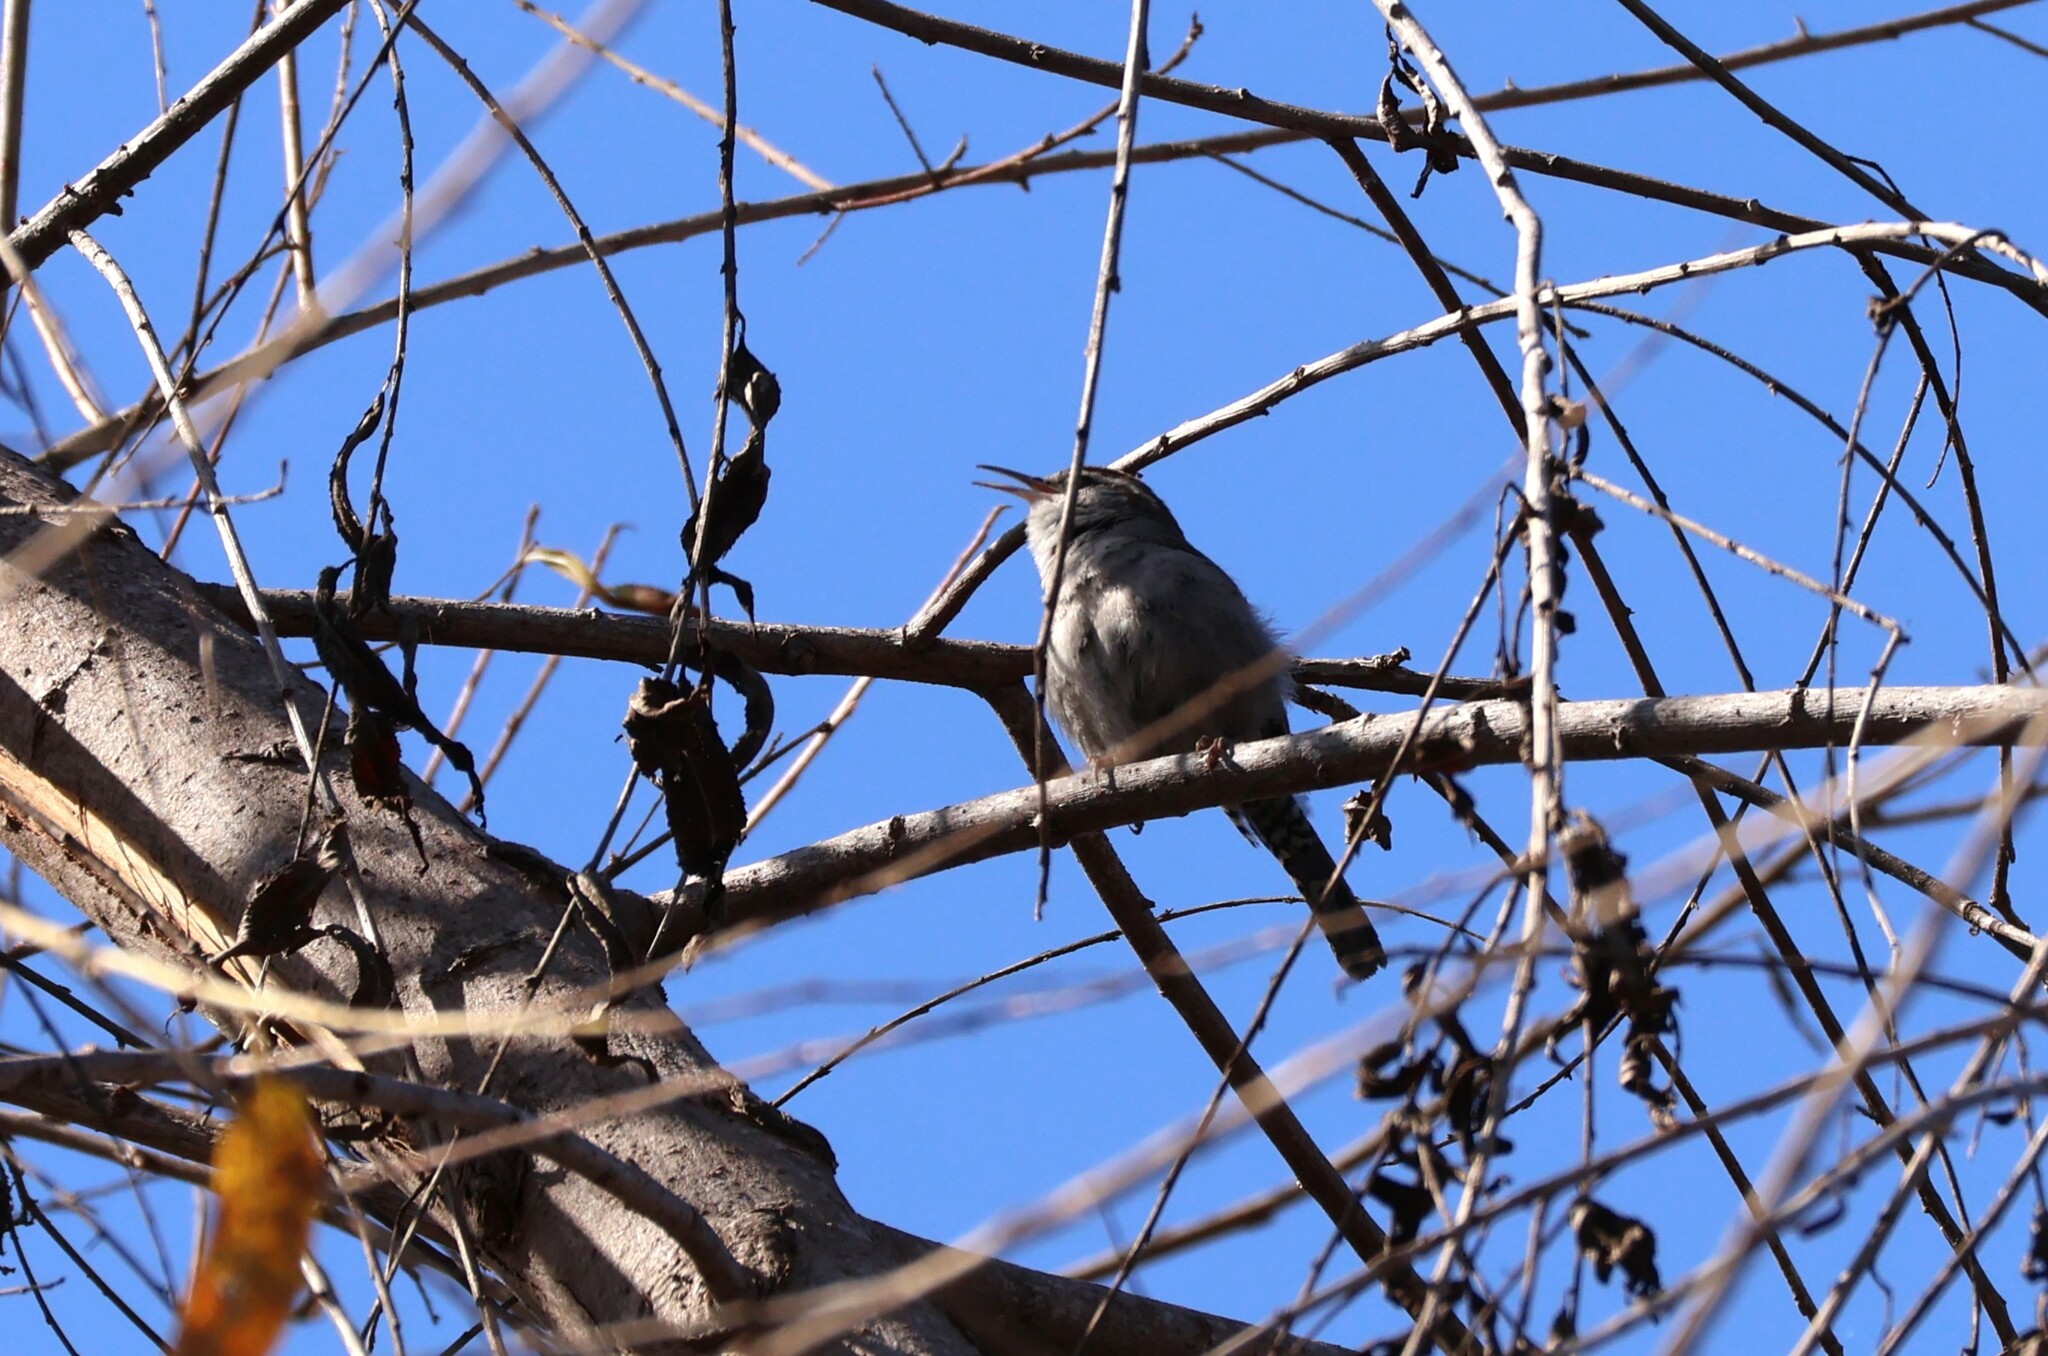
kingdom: Animalia
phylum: Chordata
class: Aves
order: Passeriformes
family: Troglodytidae
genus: Thryomanes
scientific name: Thryomanes bewickii
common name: Bewick's wren
